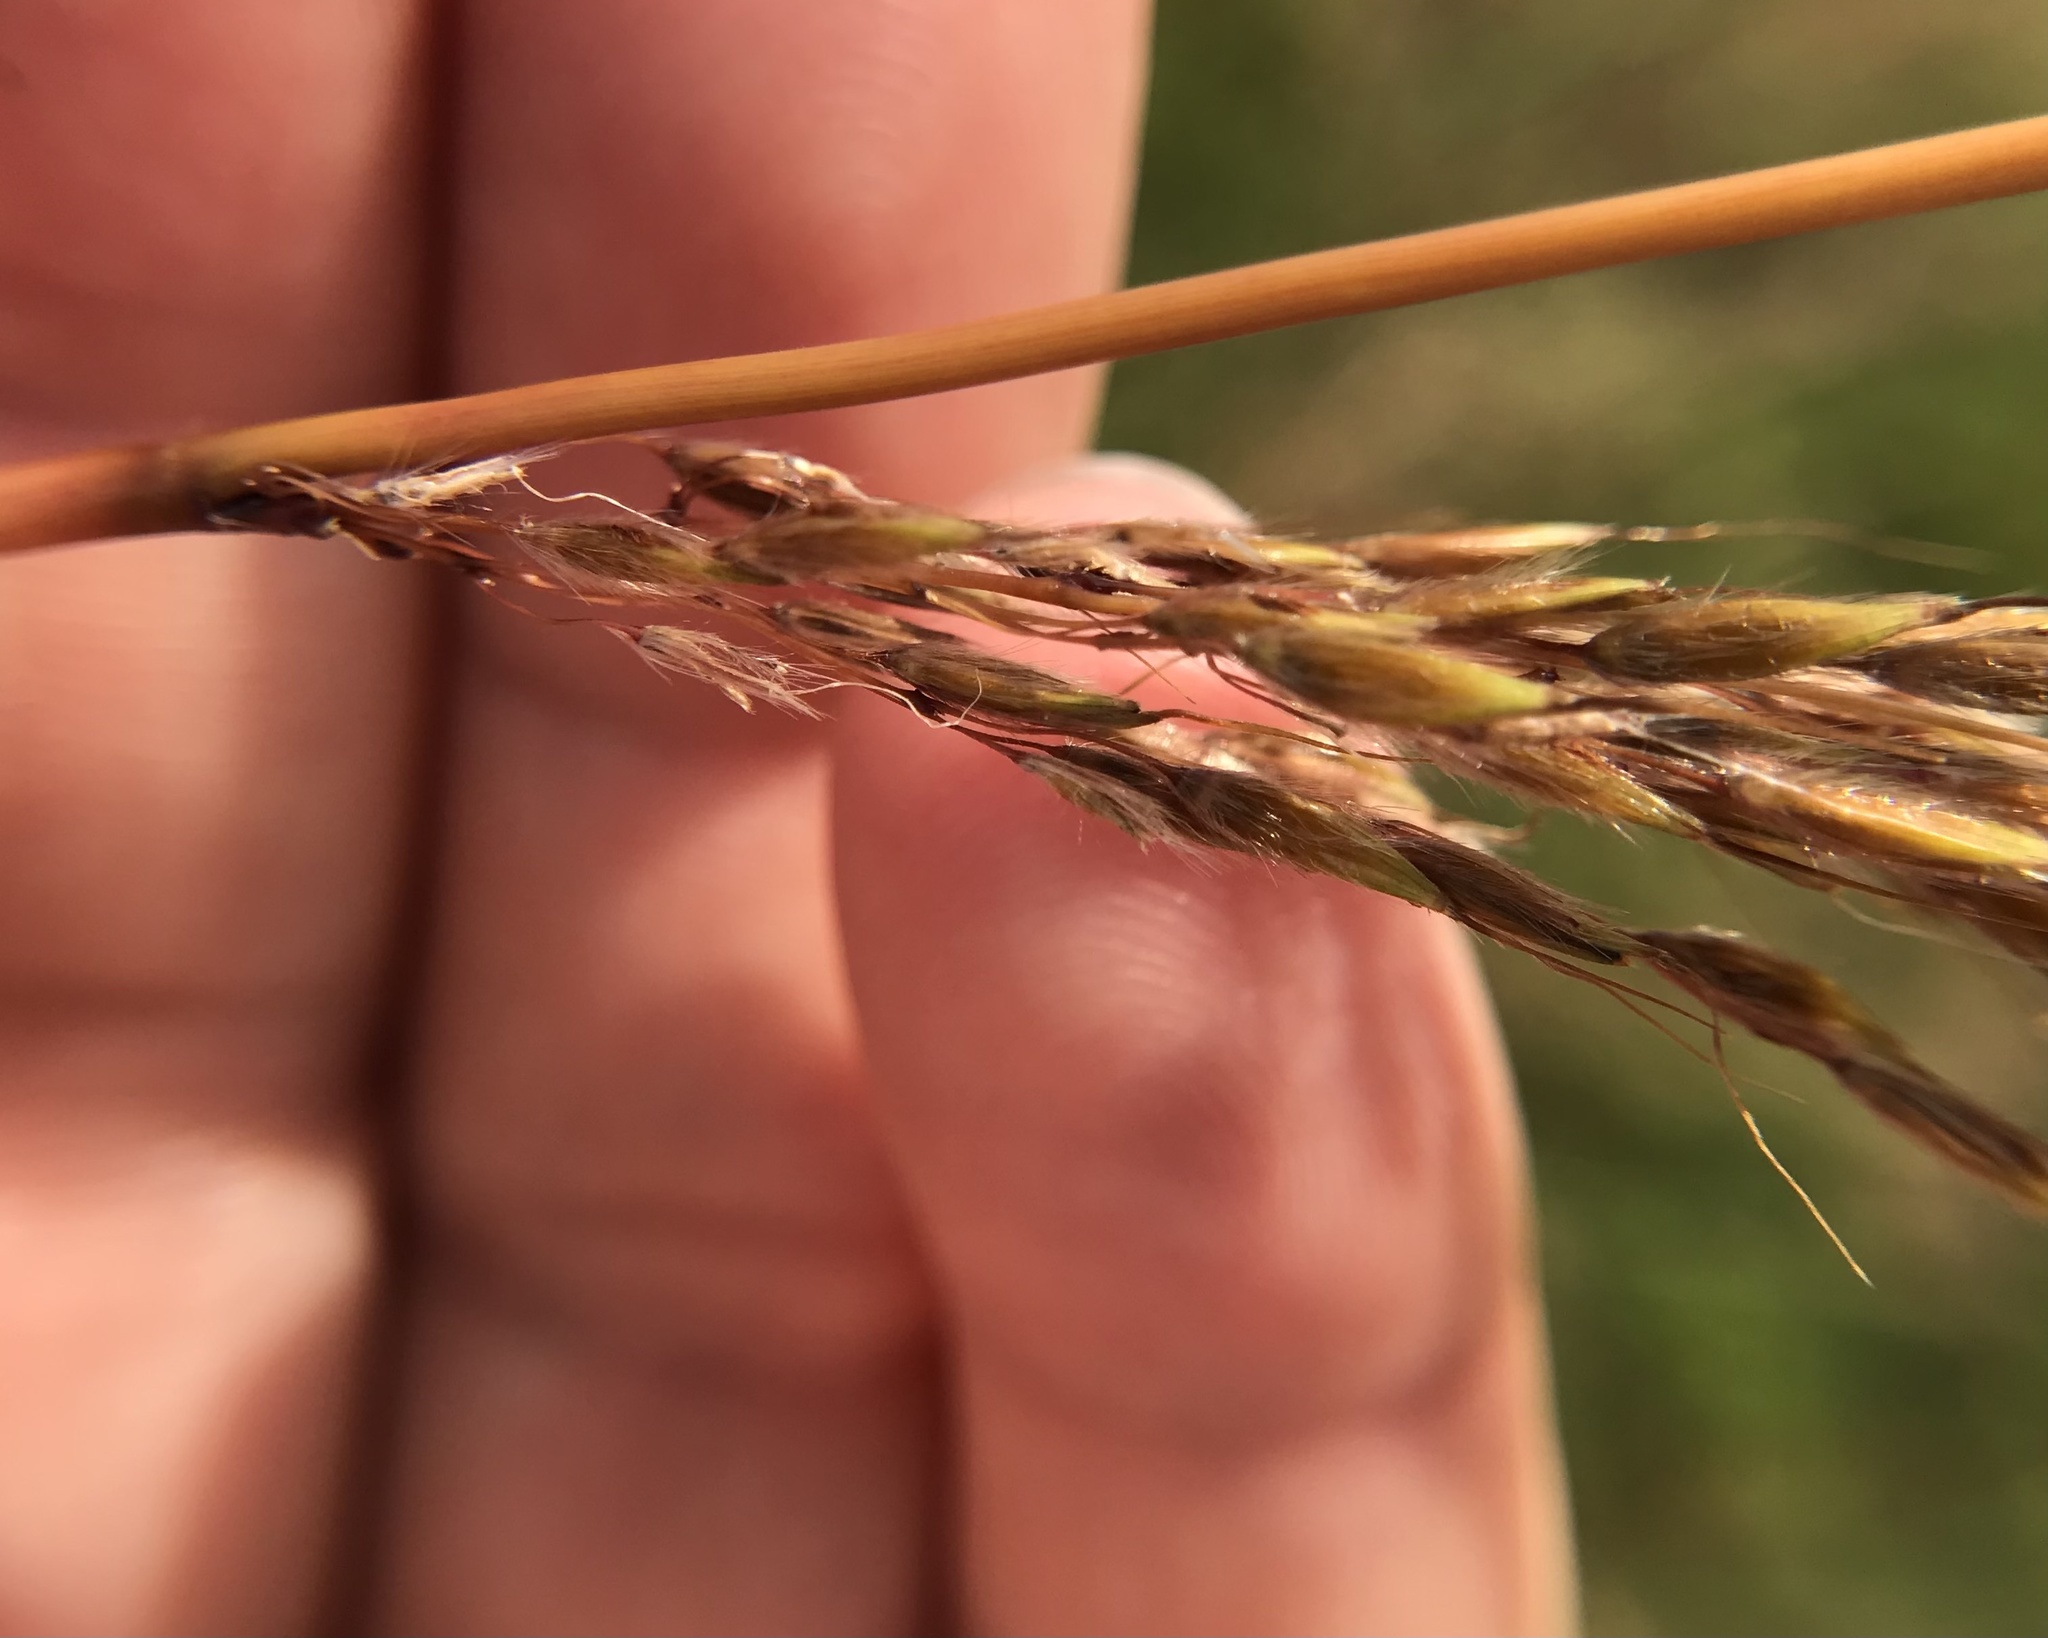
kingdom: Plantae
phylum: Tracheophyta
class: Liliopsida
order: Poales
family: Poaceae
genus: Sorghastrum
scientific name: Sorghastrum nutans
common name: Indian grass
